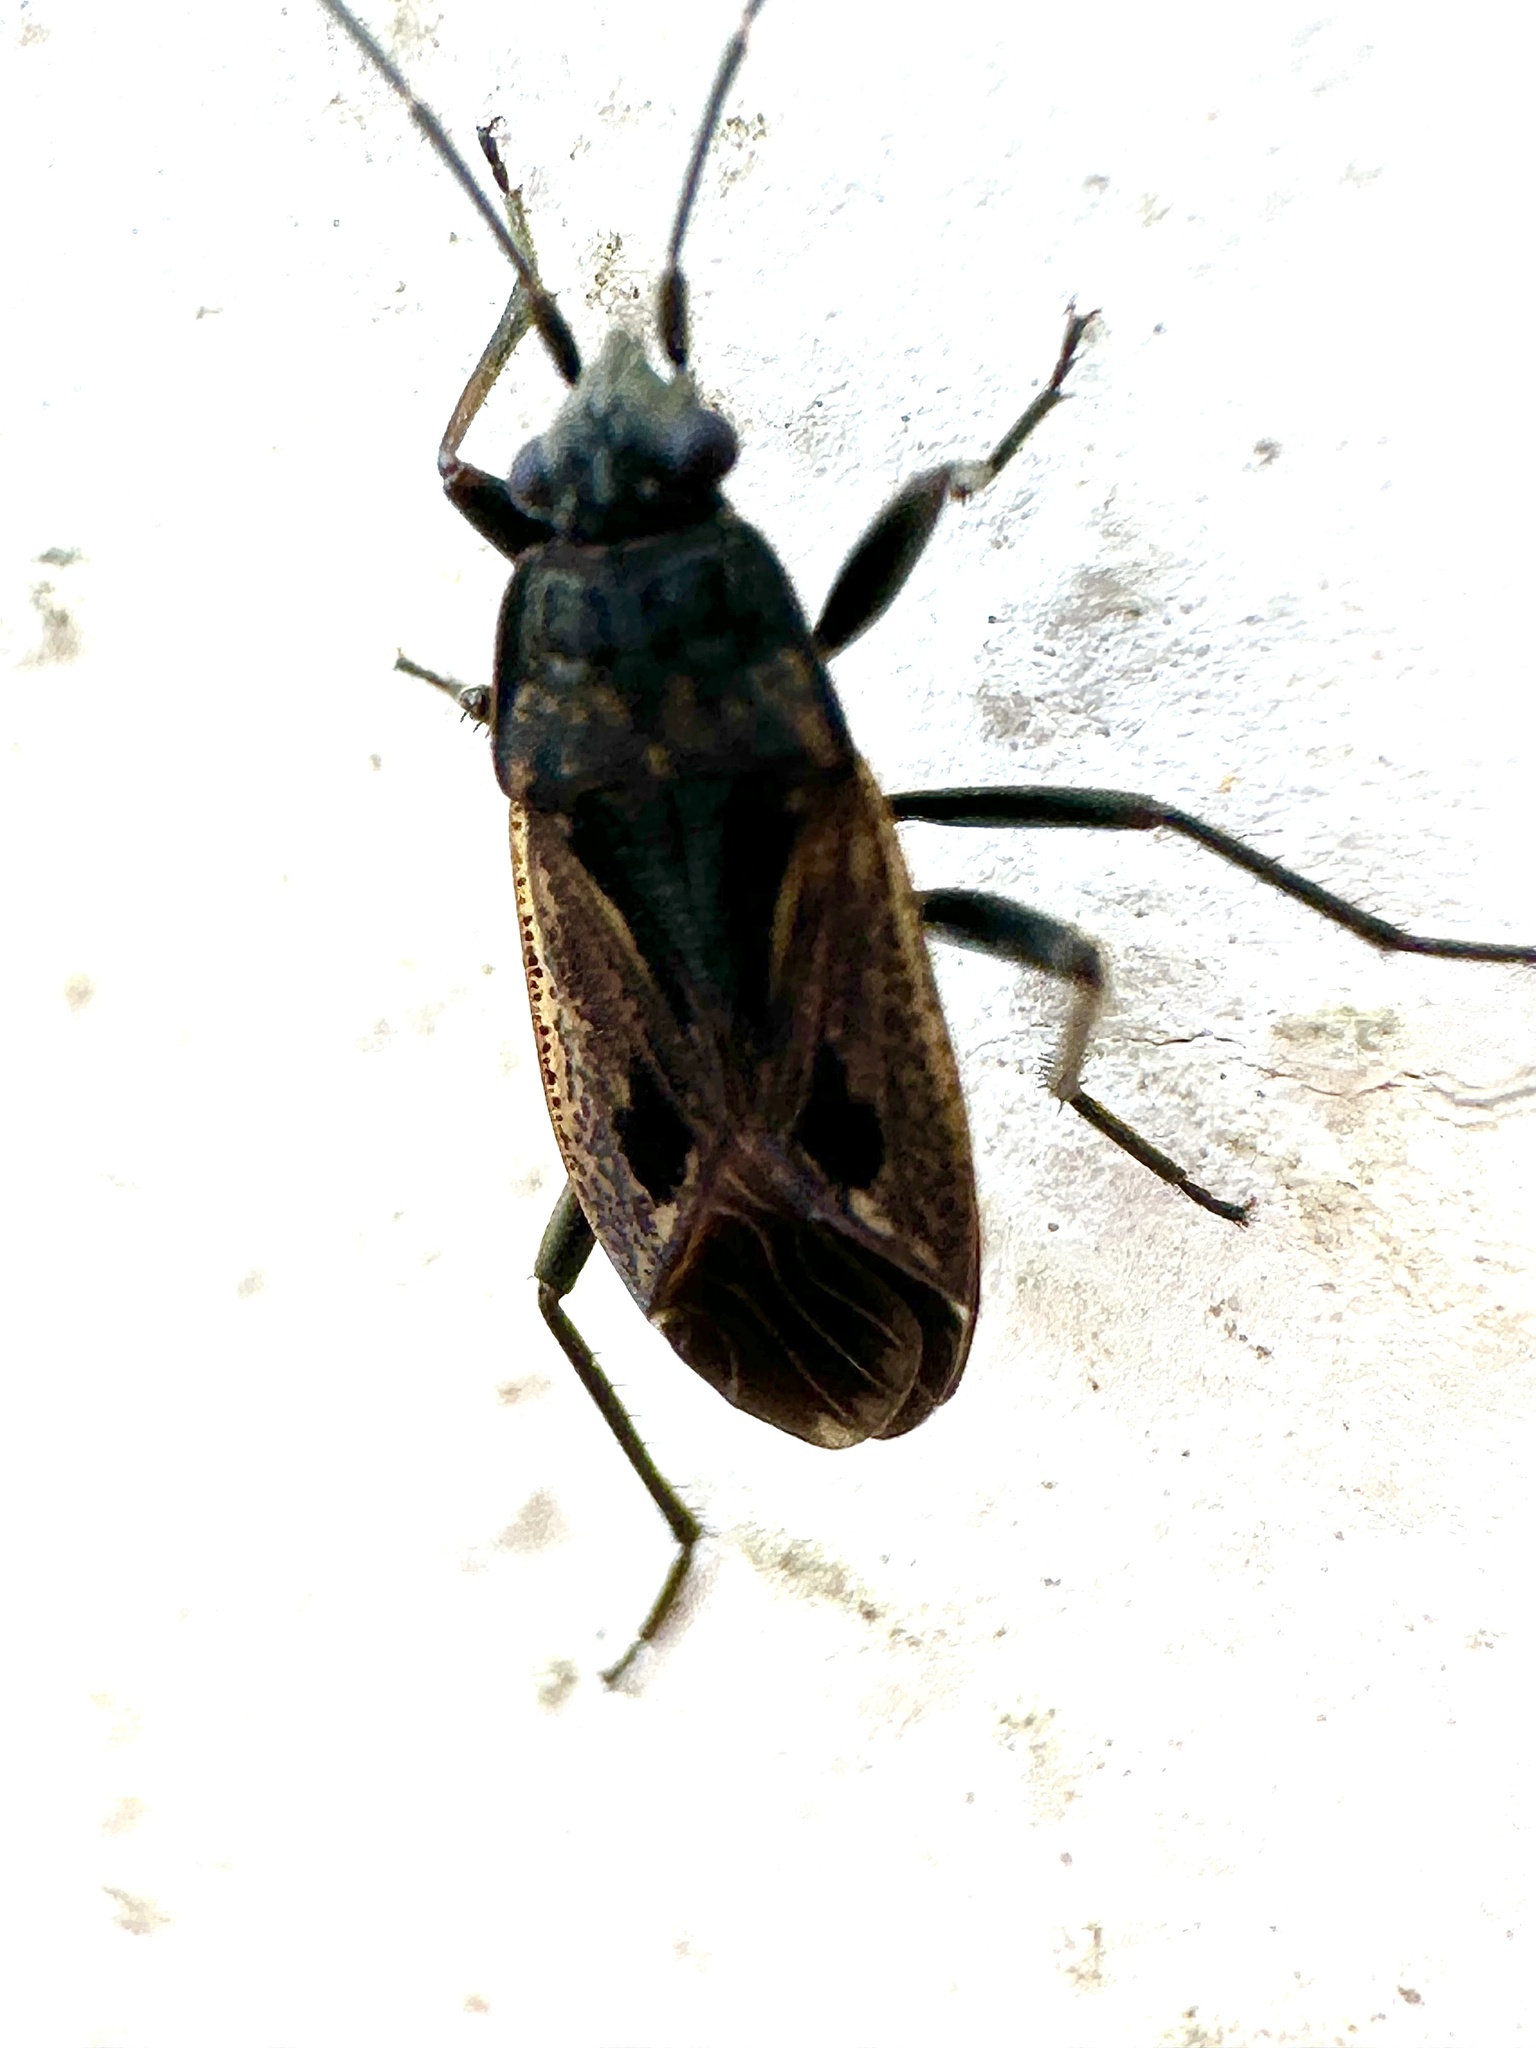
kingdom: Animalia
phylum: Arthropoda
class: Insecta
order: Hemiptera
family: Rhyparochromidae
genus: Rhyparochromus
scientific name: Rhyparochromus pini
